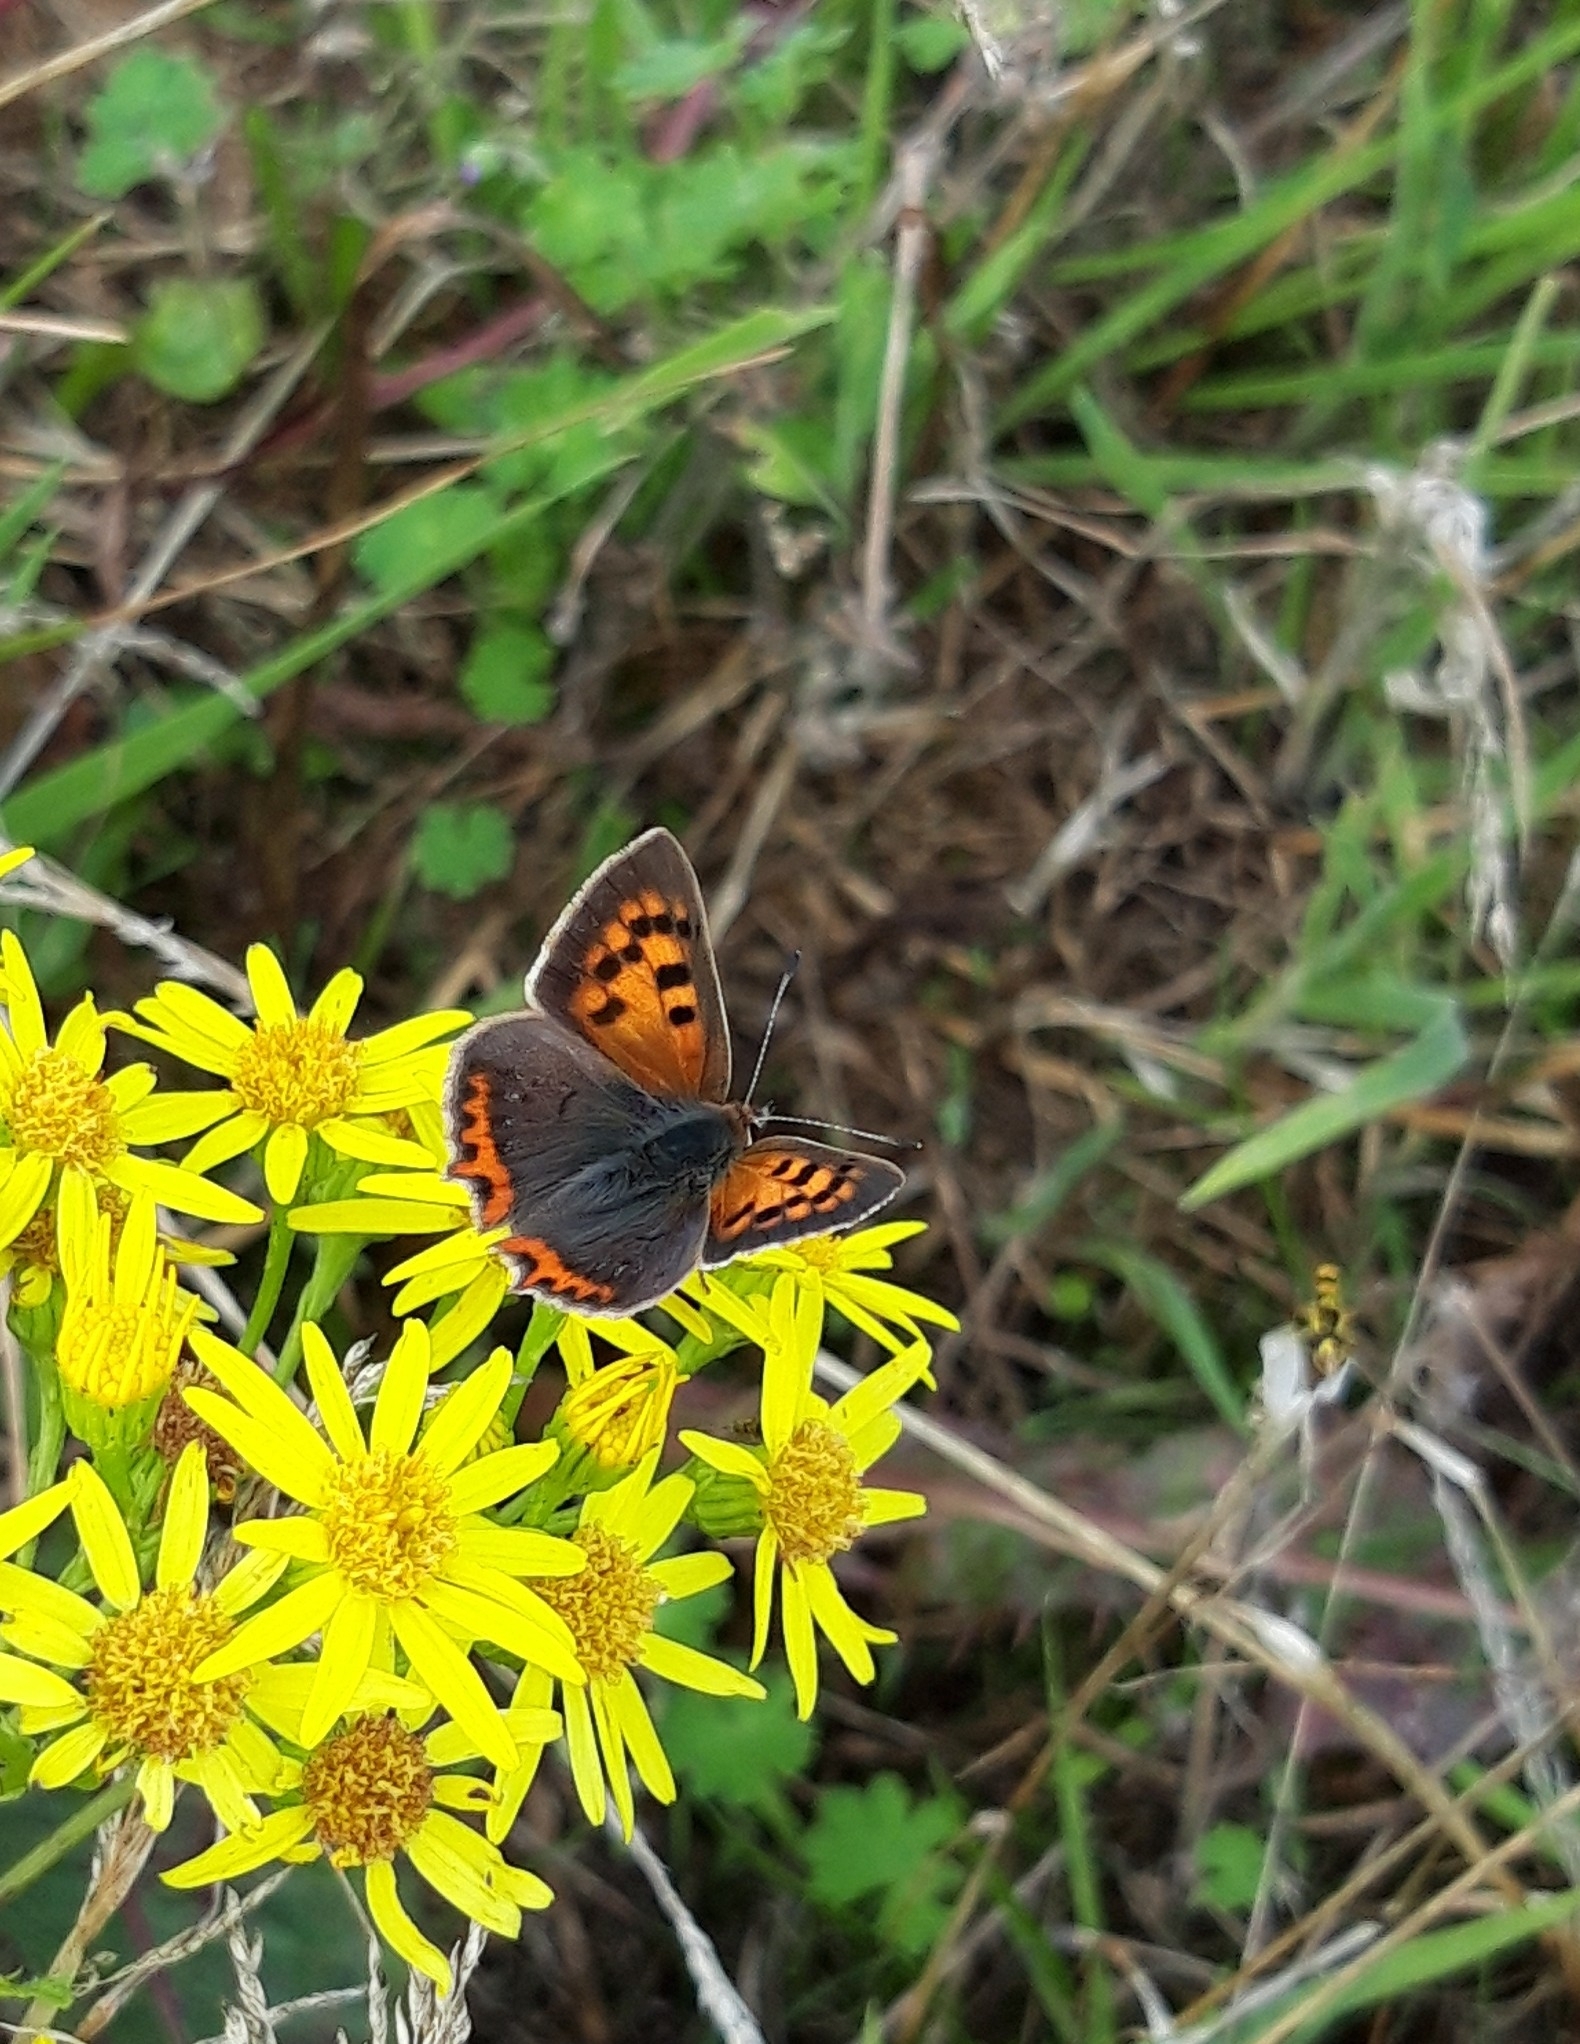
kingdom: Animalia
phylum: Arthropoda
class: Insecta
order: Lepidoptera
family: Lycaenidae
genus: Lycaena
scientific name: Lycaena phlaeas
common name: Small copper
